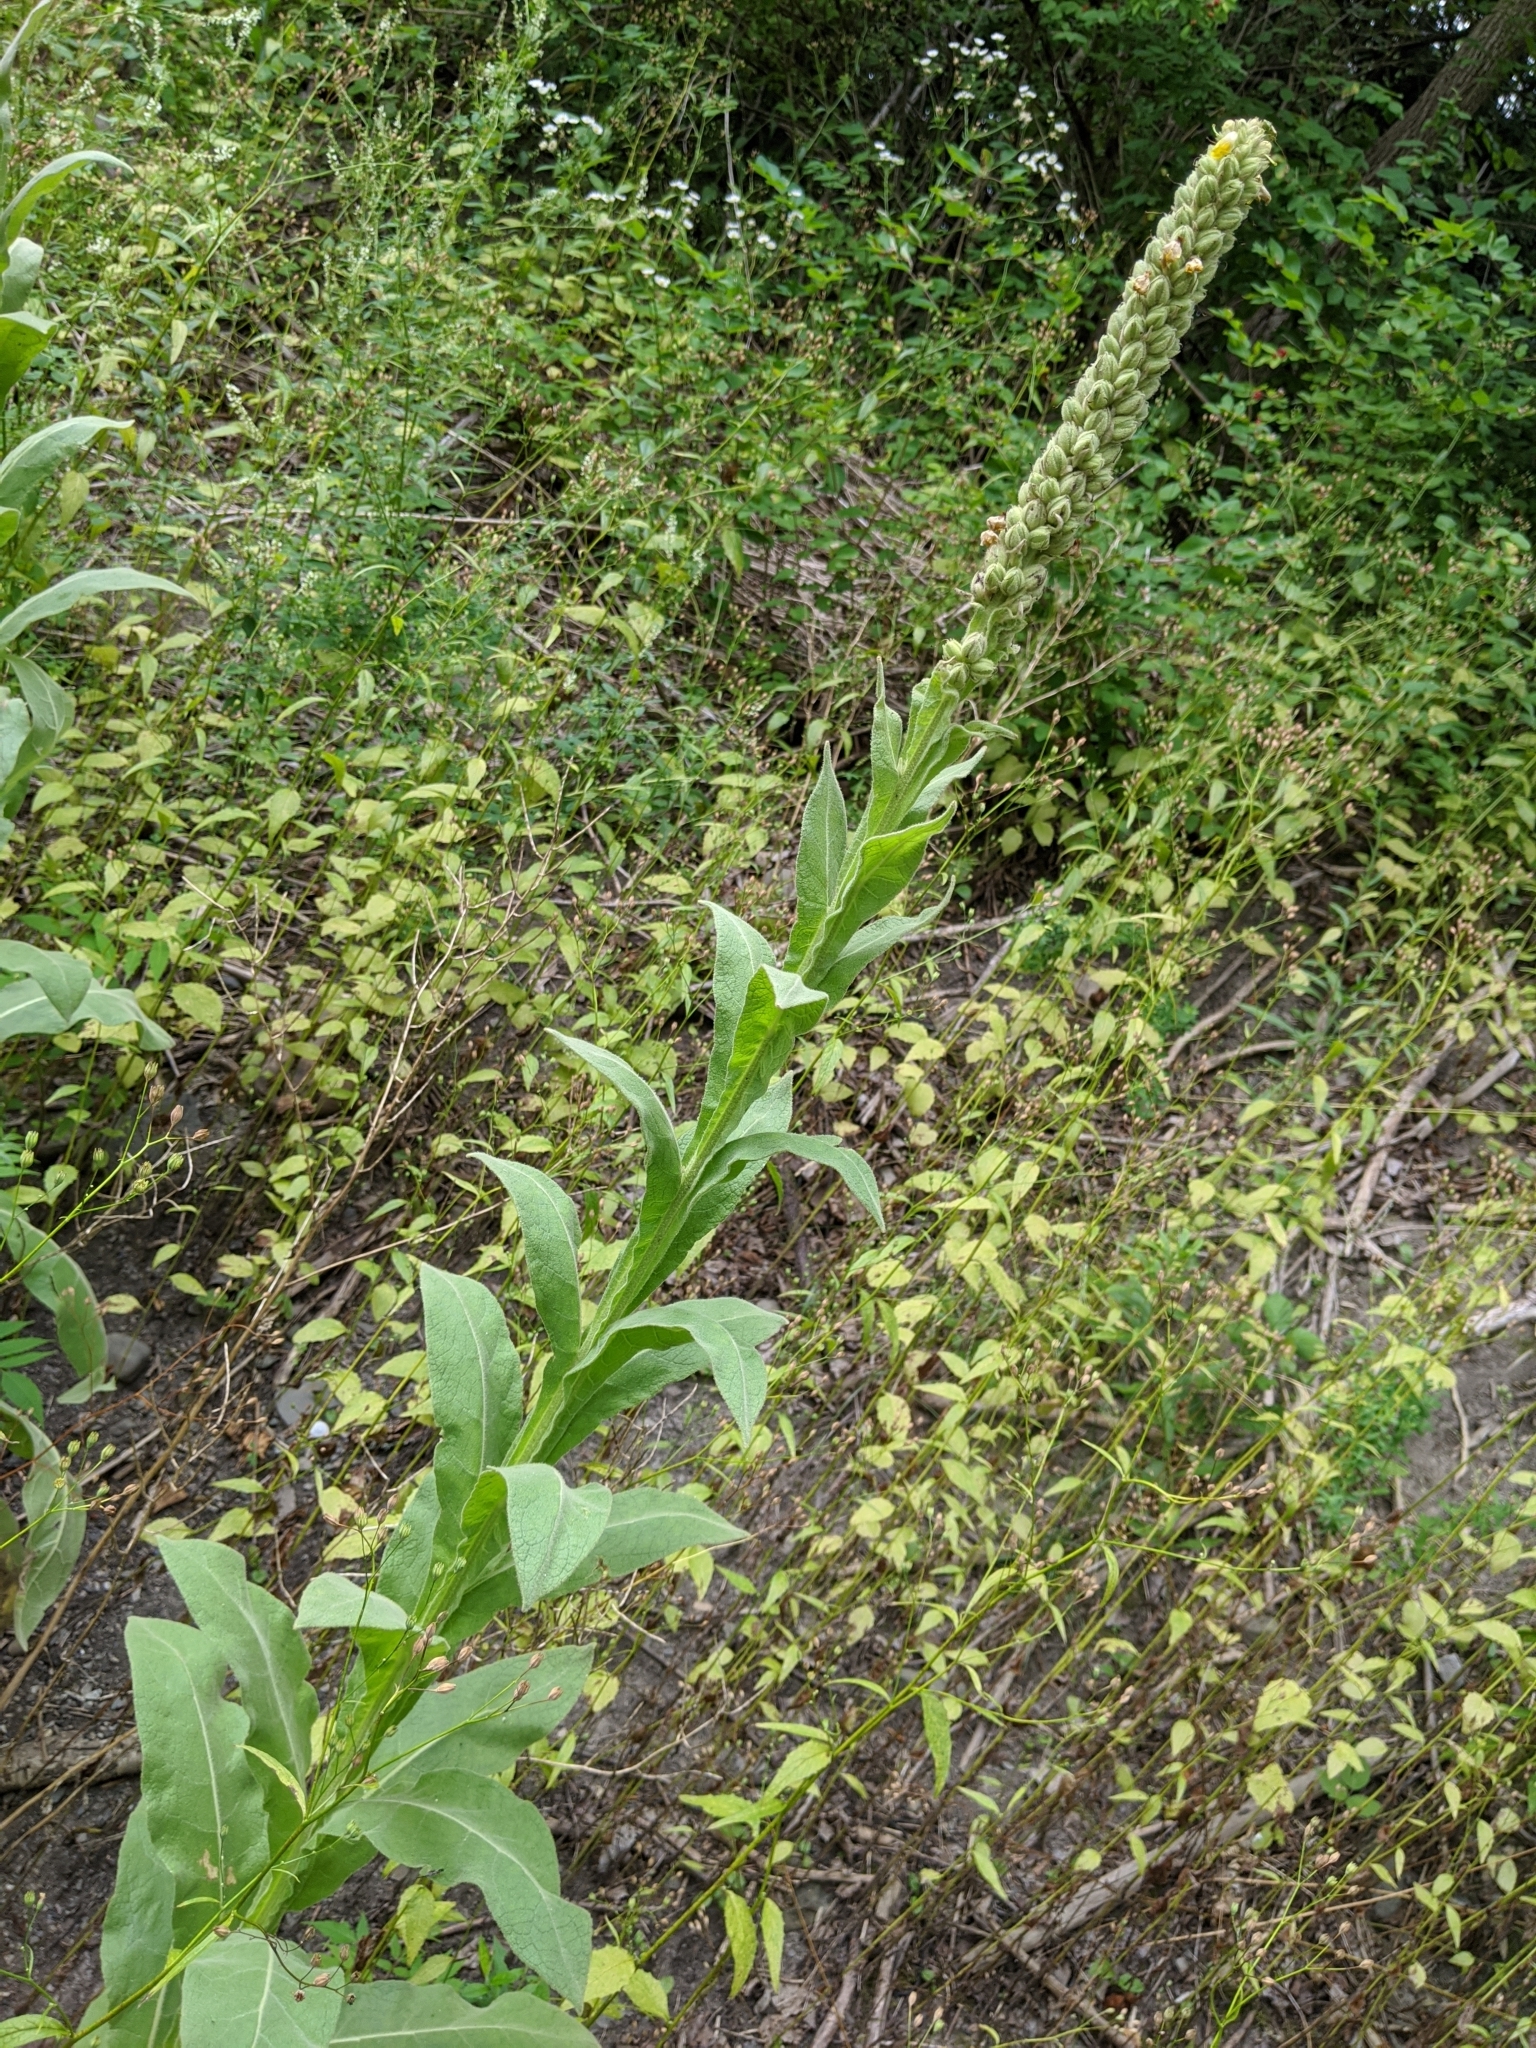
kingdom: Plantae
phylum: Tracheophyta
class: Magnoliopsida
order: Lamiales
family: Scrophulariaceae
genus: Verbascum
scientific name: Verbascum thapsus
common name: Common mullein
